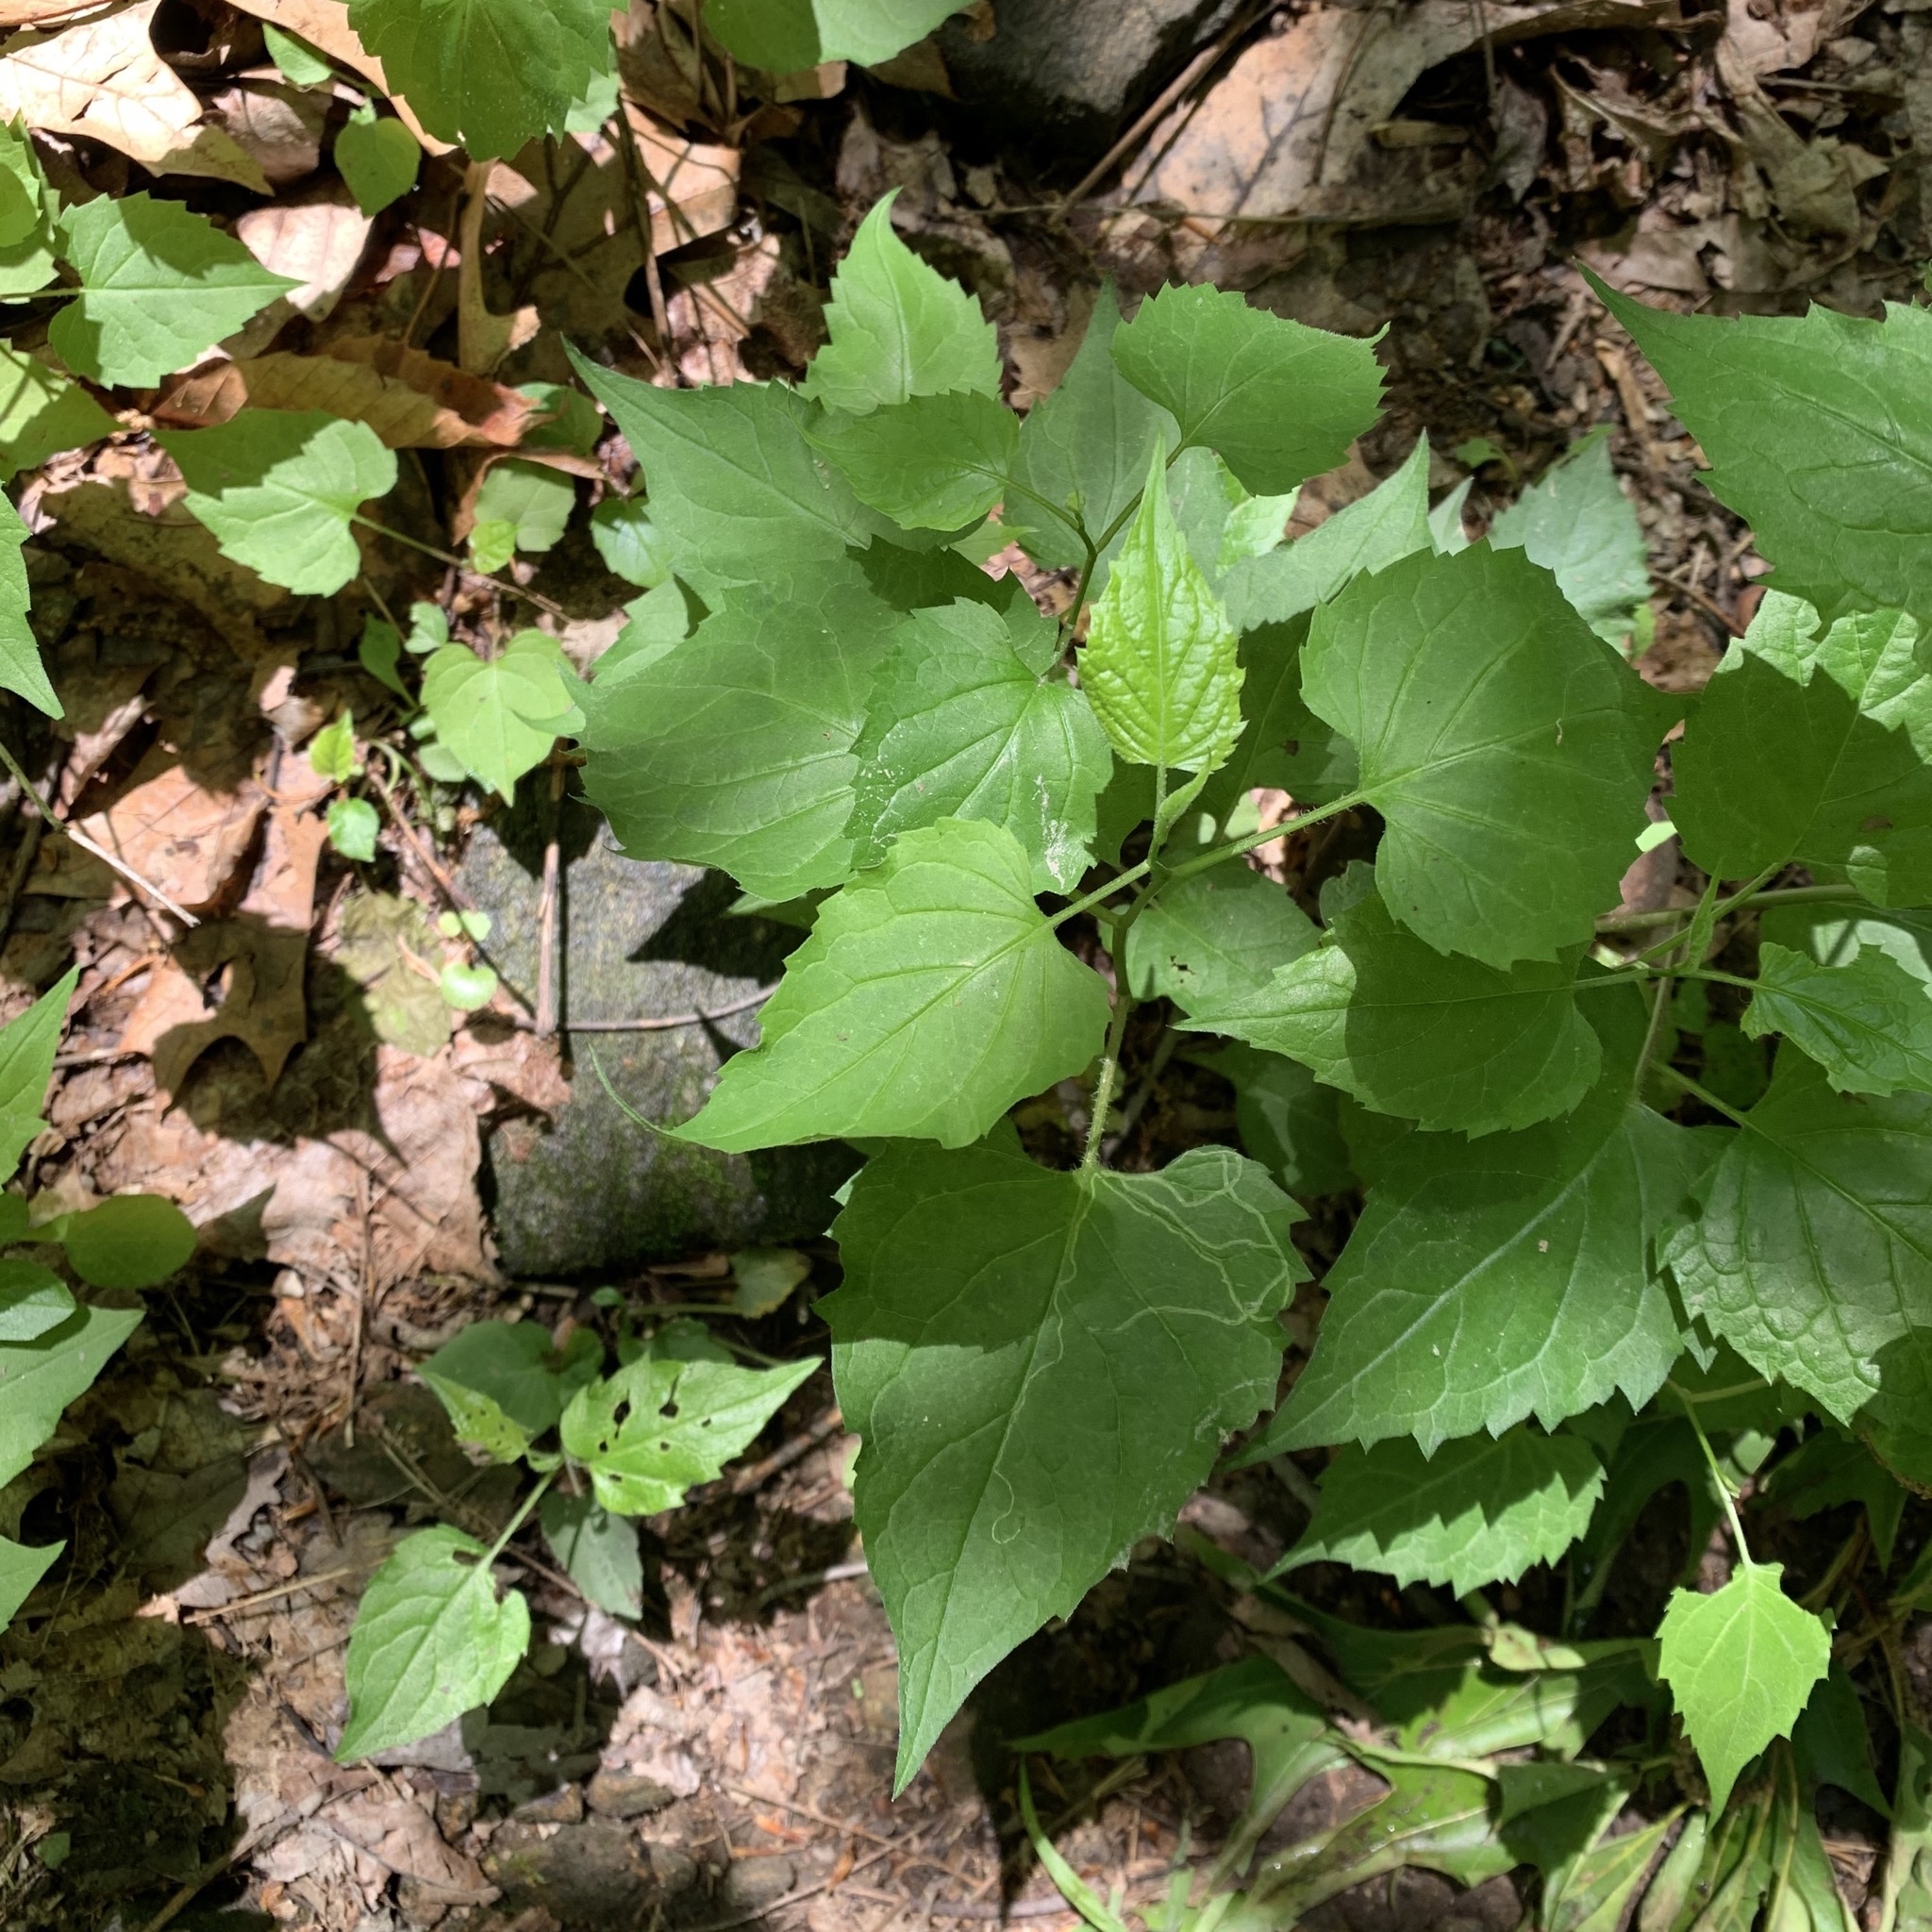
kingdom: Plantae
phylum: Tracheophyta
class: Magnoliopsida
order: Asterales
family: Asteraceae
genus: Eurybia
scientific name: Eurybia divaricata
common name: White wood aster
